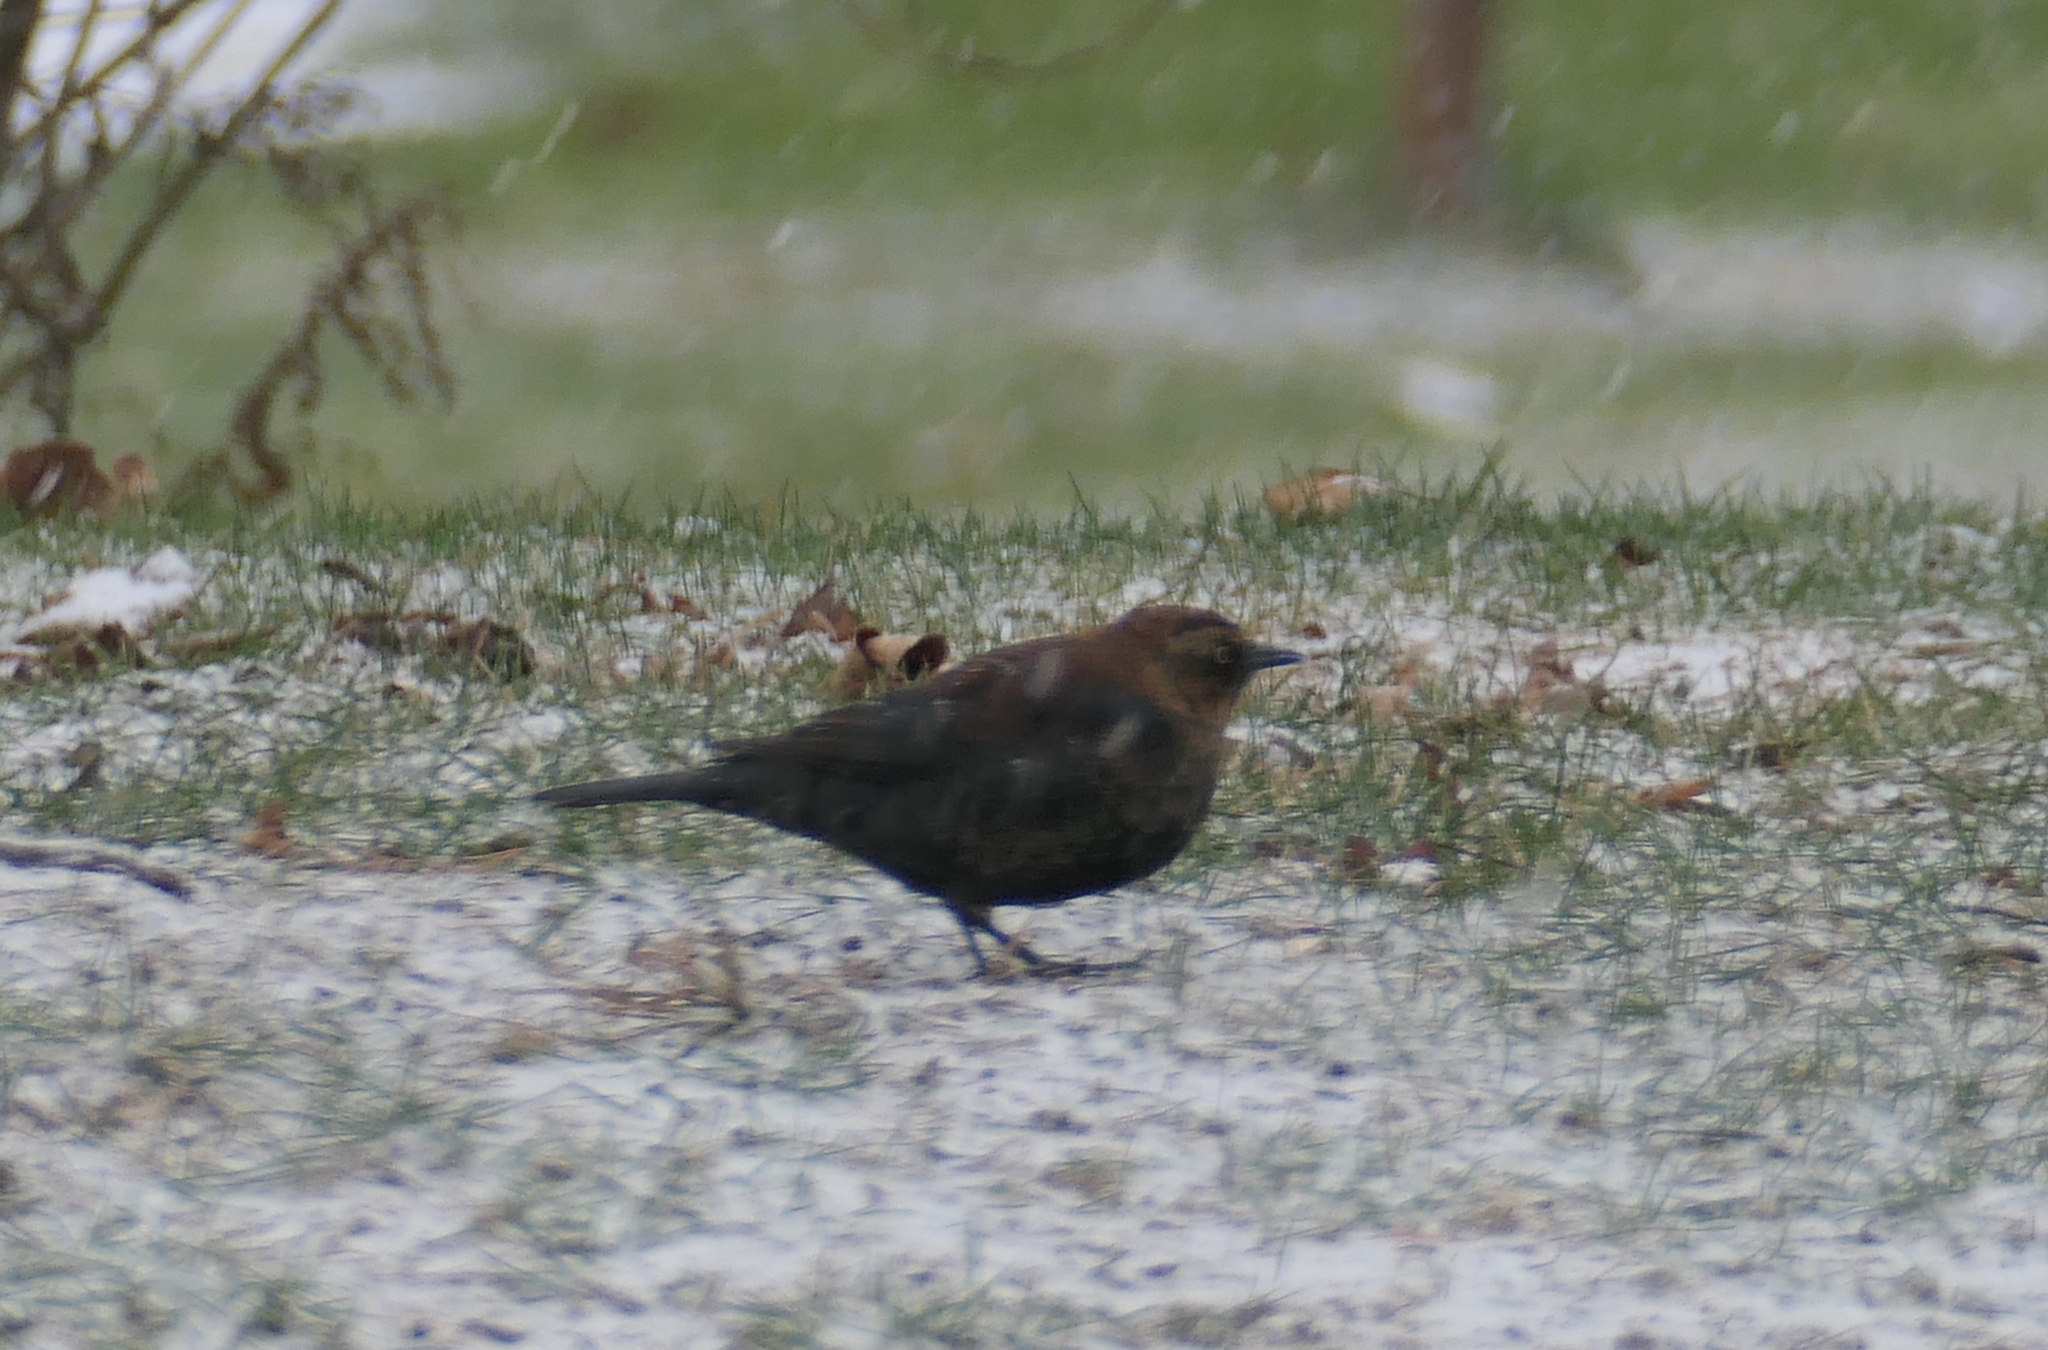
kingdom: Animalia
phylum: Chordata
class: Aves
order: Passeriformes
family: Icteridae
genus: Euphagus
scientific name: Euphagus carolinus
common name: Rusty blackbird
